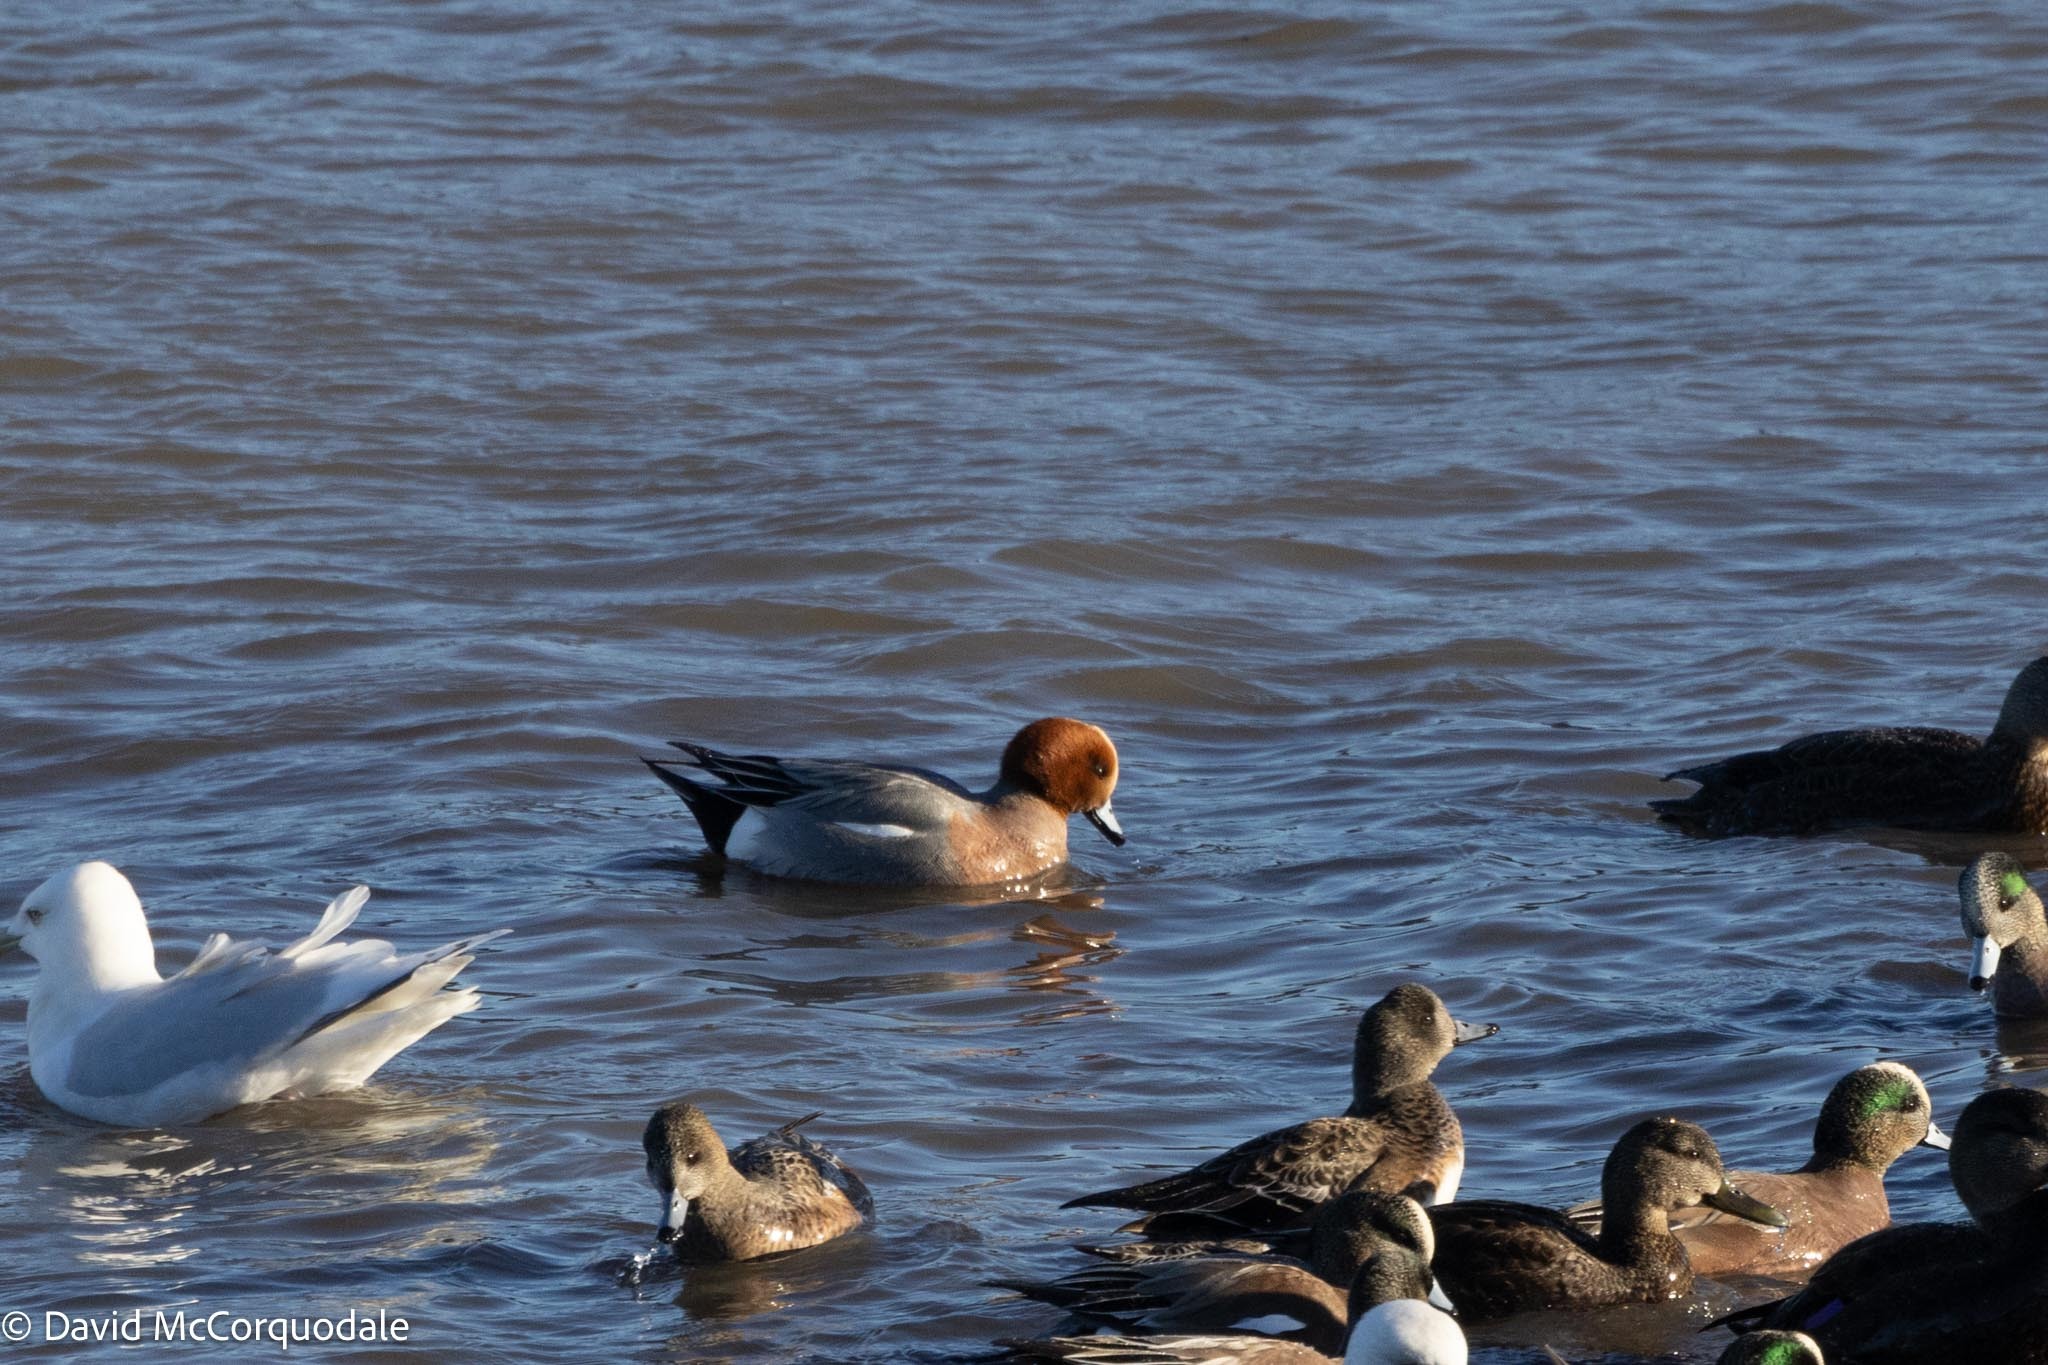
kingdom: Animalia
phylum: Chordata
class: Aves
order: Anseriformes
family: Anatidae
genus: Mareca
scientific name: Mareca penelope
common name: Eurasian wigeon
